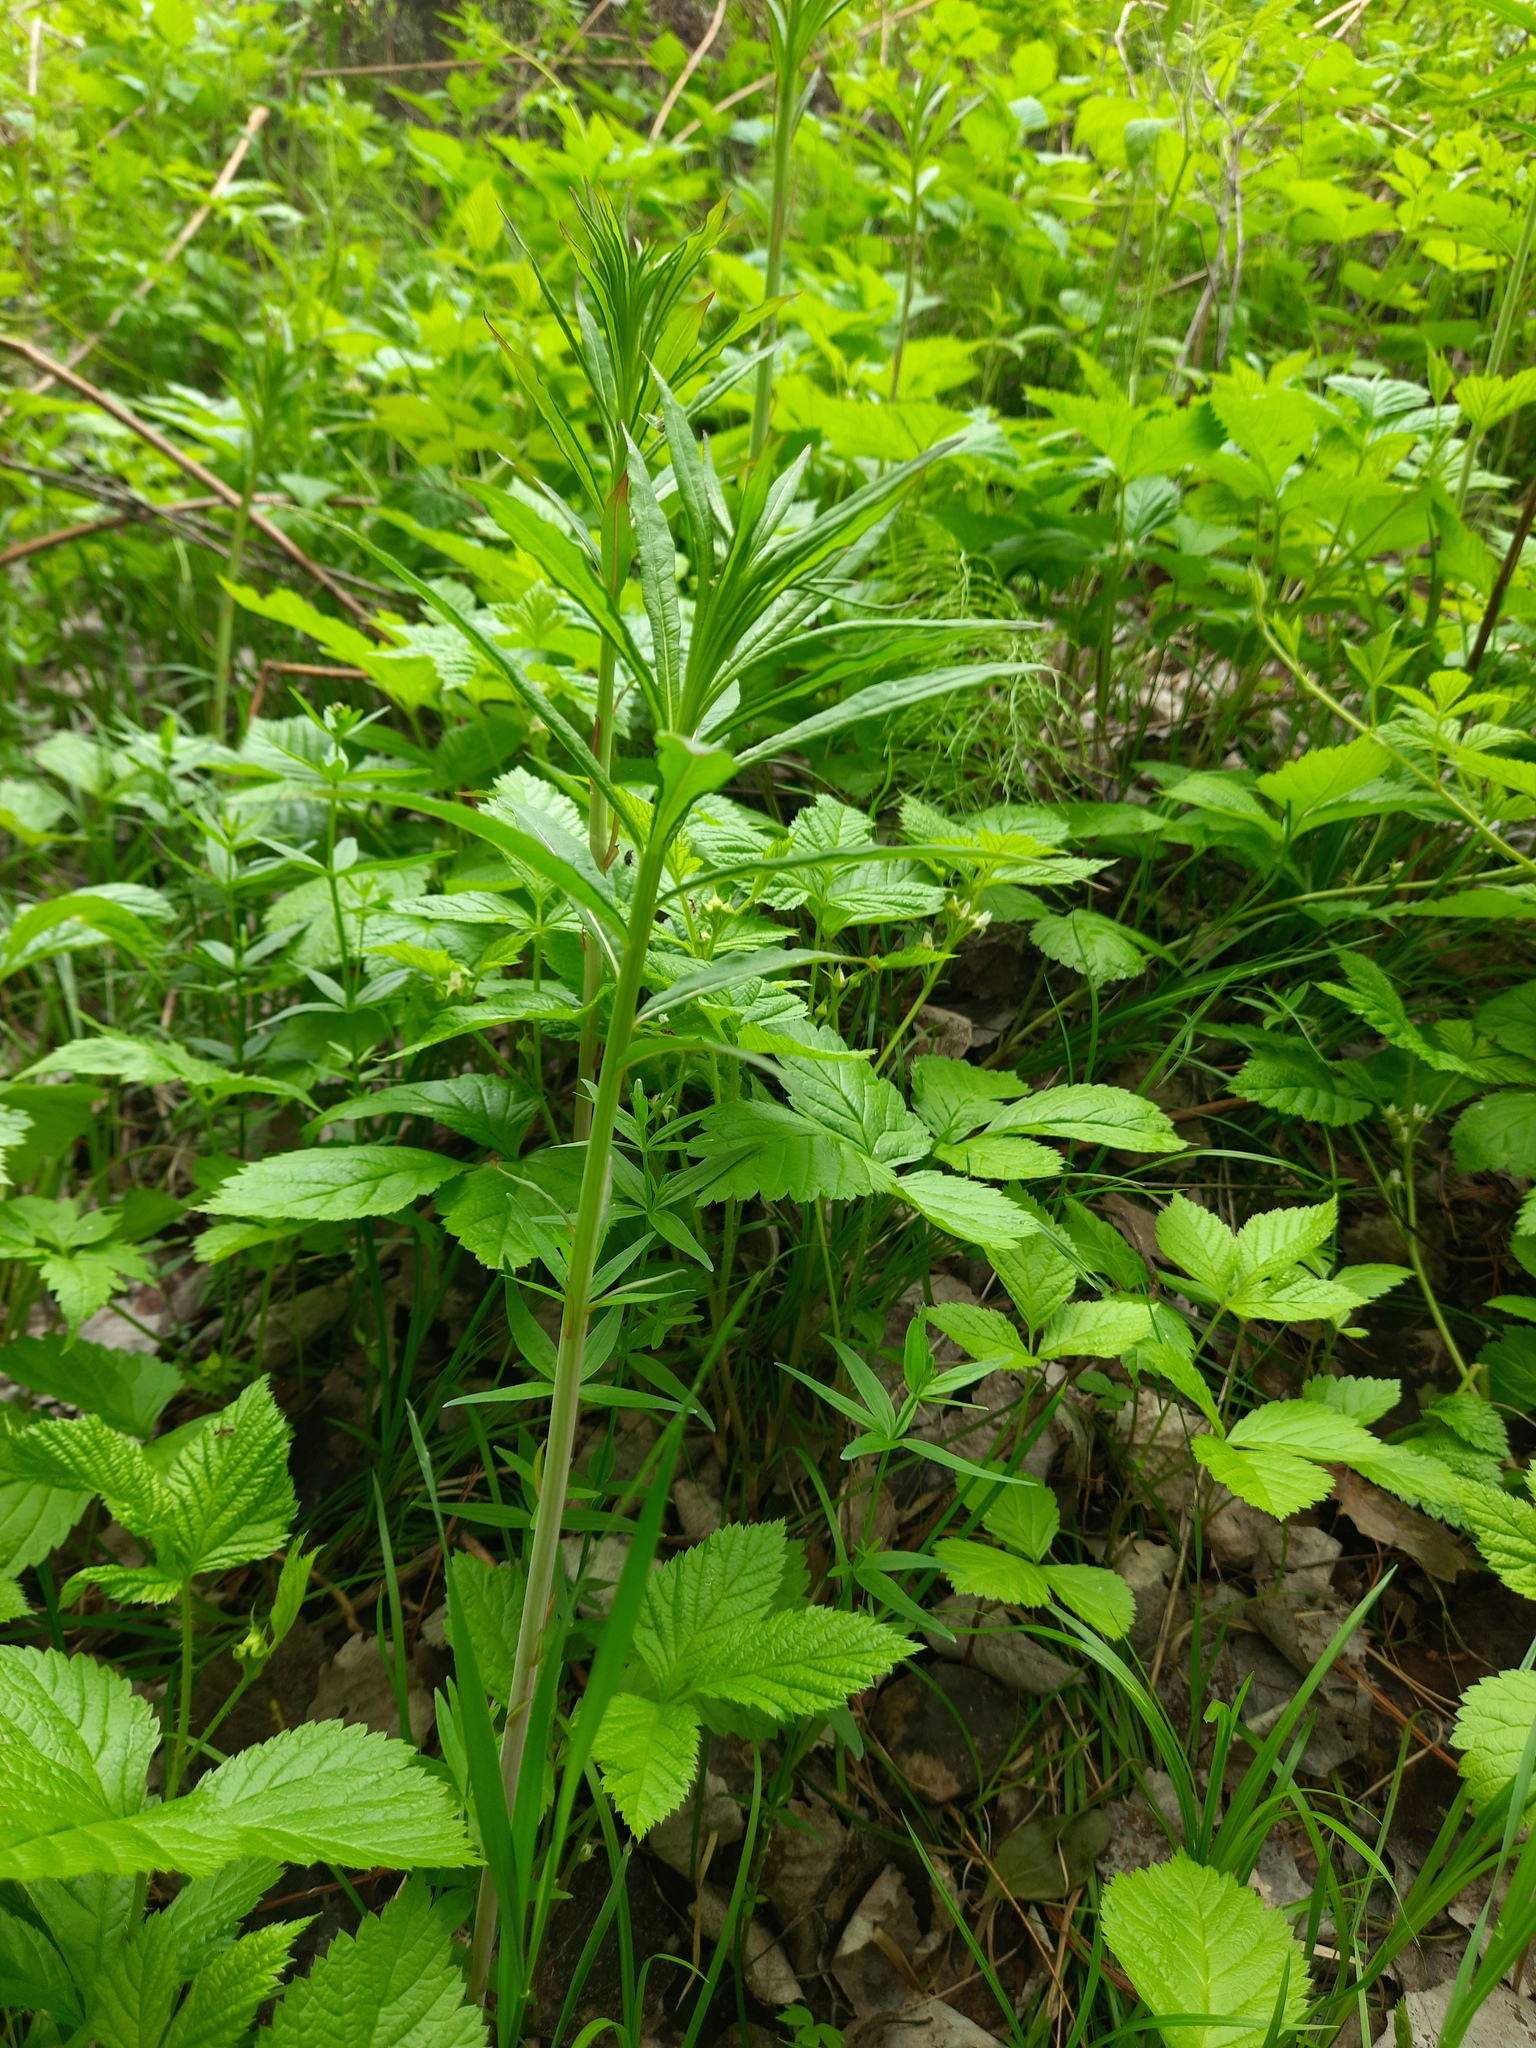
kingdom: Plantae
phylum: Tracheophyta
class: Magnoliopsida
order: Myrtales
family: Onagraceae
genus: Chamaenerion
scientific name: Chamaenerion angustifolium
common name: Fireweed
